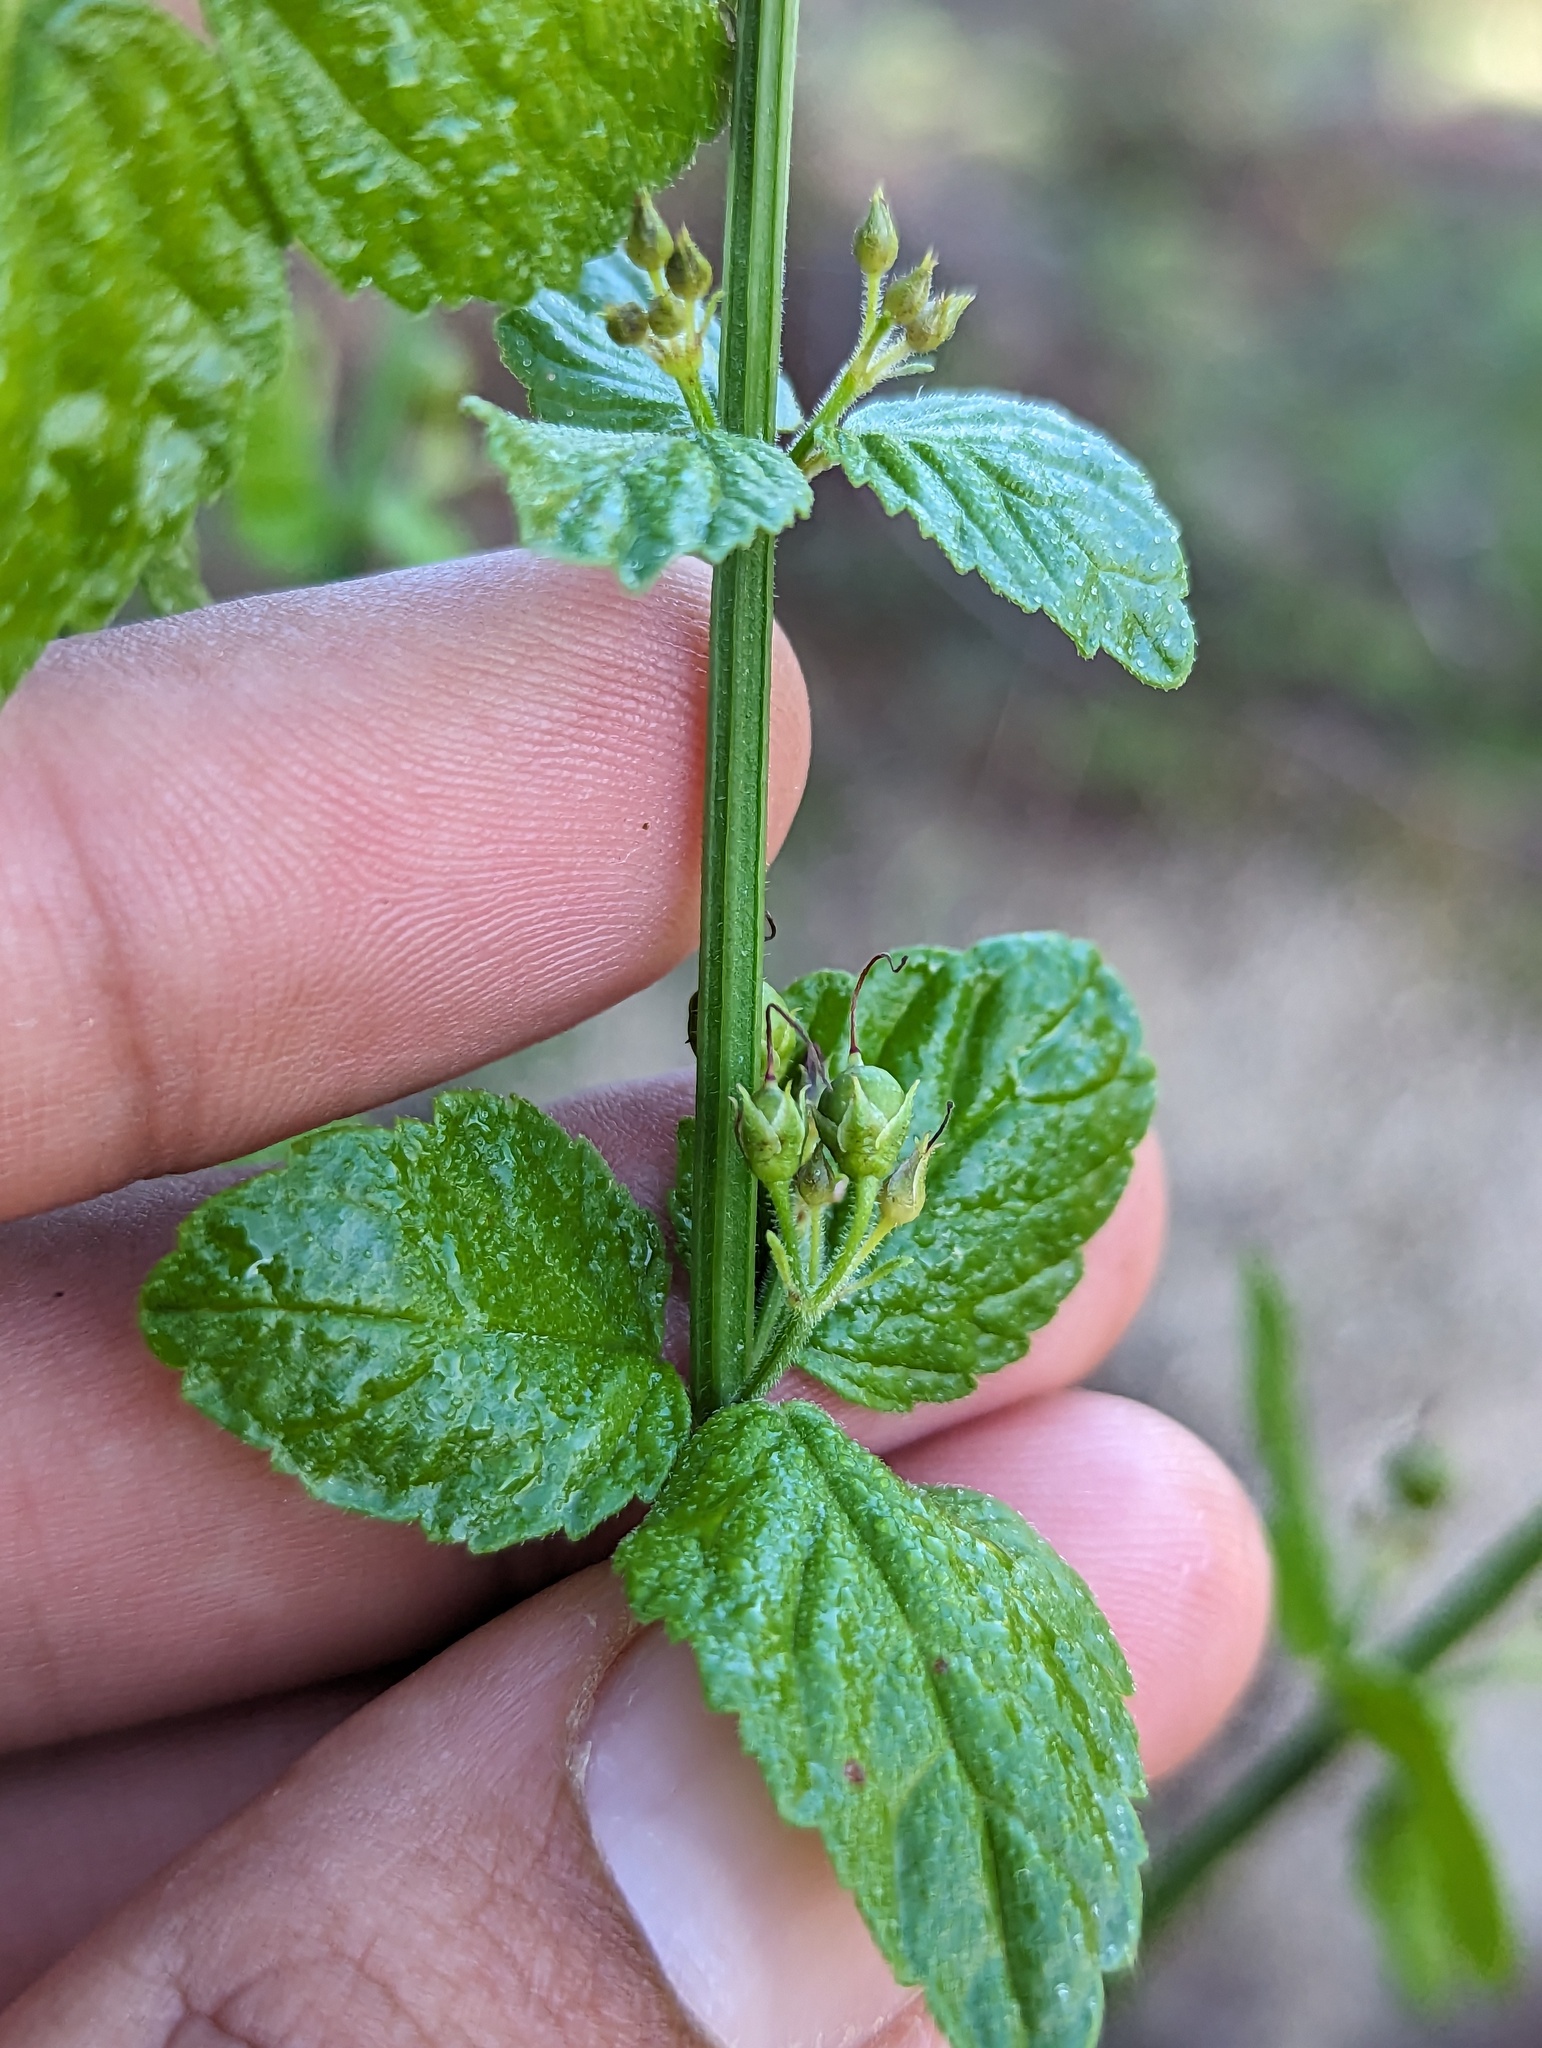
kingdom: Plantae
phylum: Tracheophyta
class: Magnoliopsida
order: Lamiales
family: Plantaginaceae
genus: Russelia
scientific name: Russelia retrorsa
